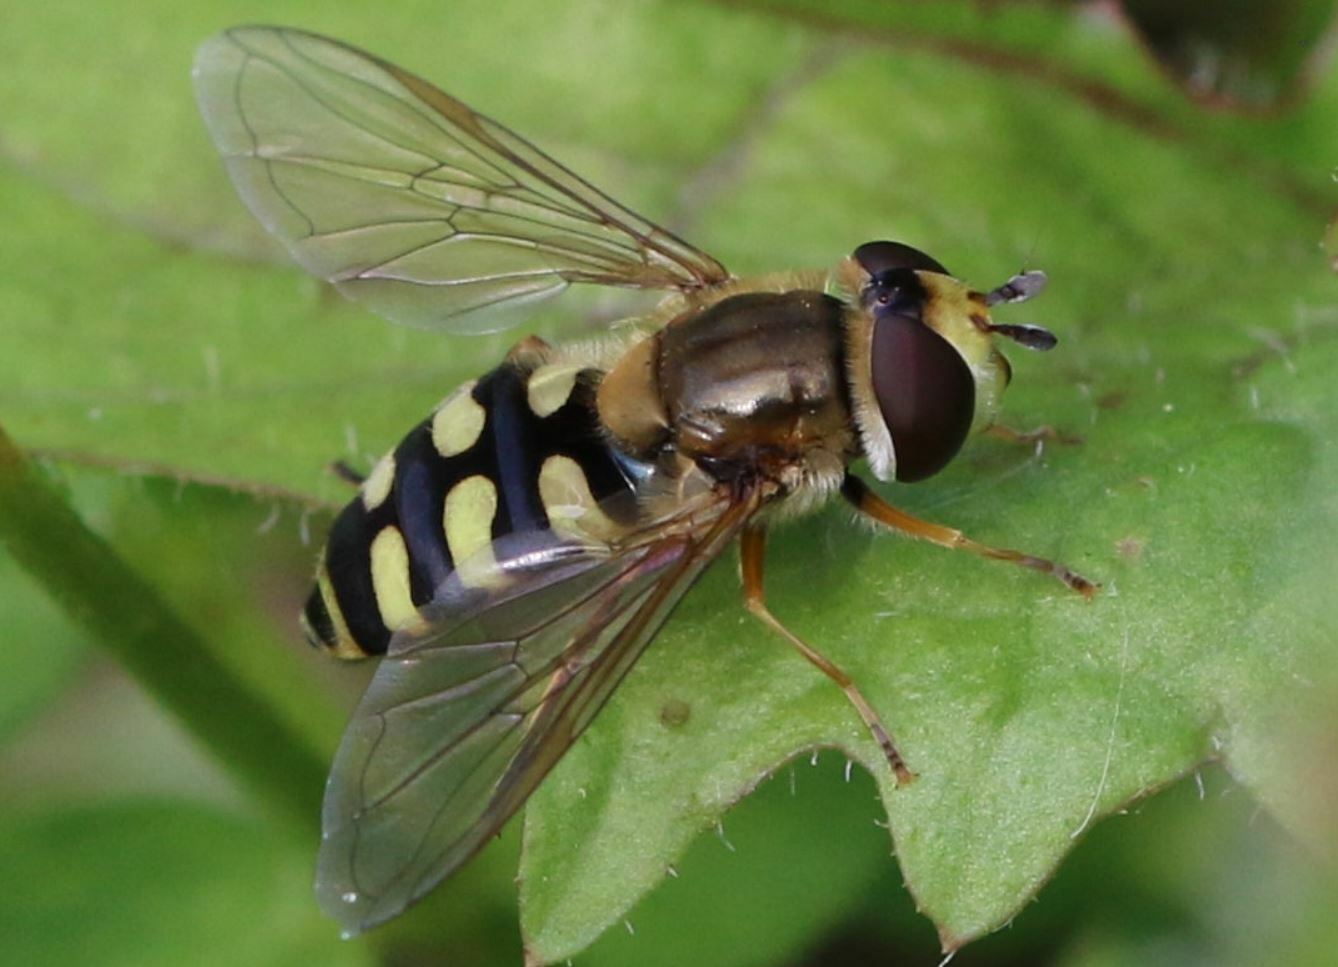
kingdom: Animalia
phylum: Arthropoda
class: Insecta
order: Diptera
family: Syrphidae
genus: Eupeodes
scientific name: Eupeodes corollae
